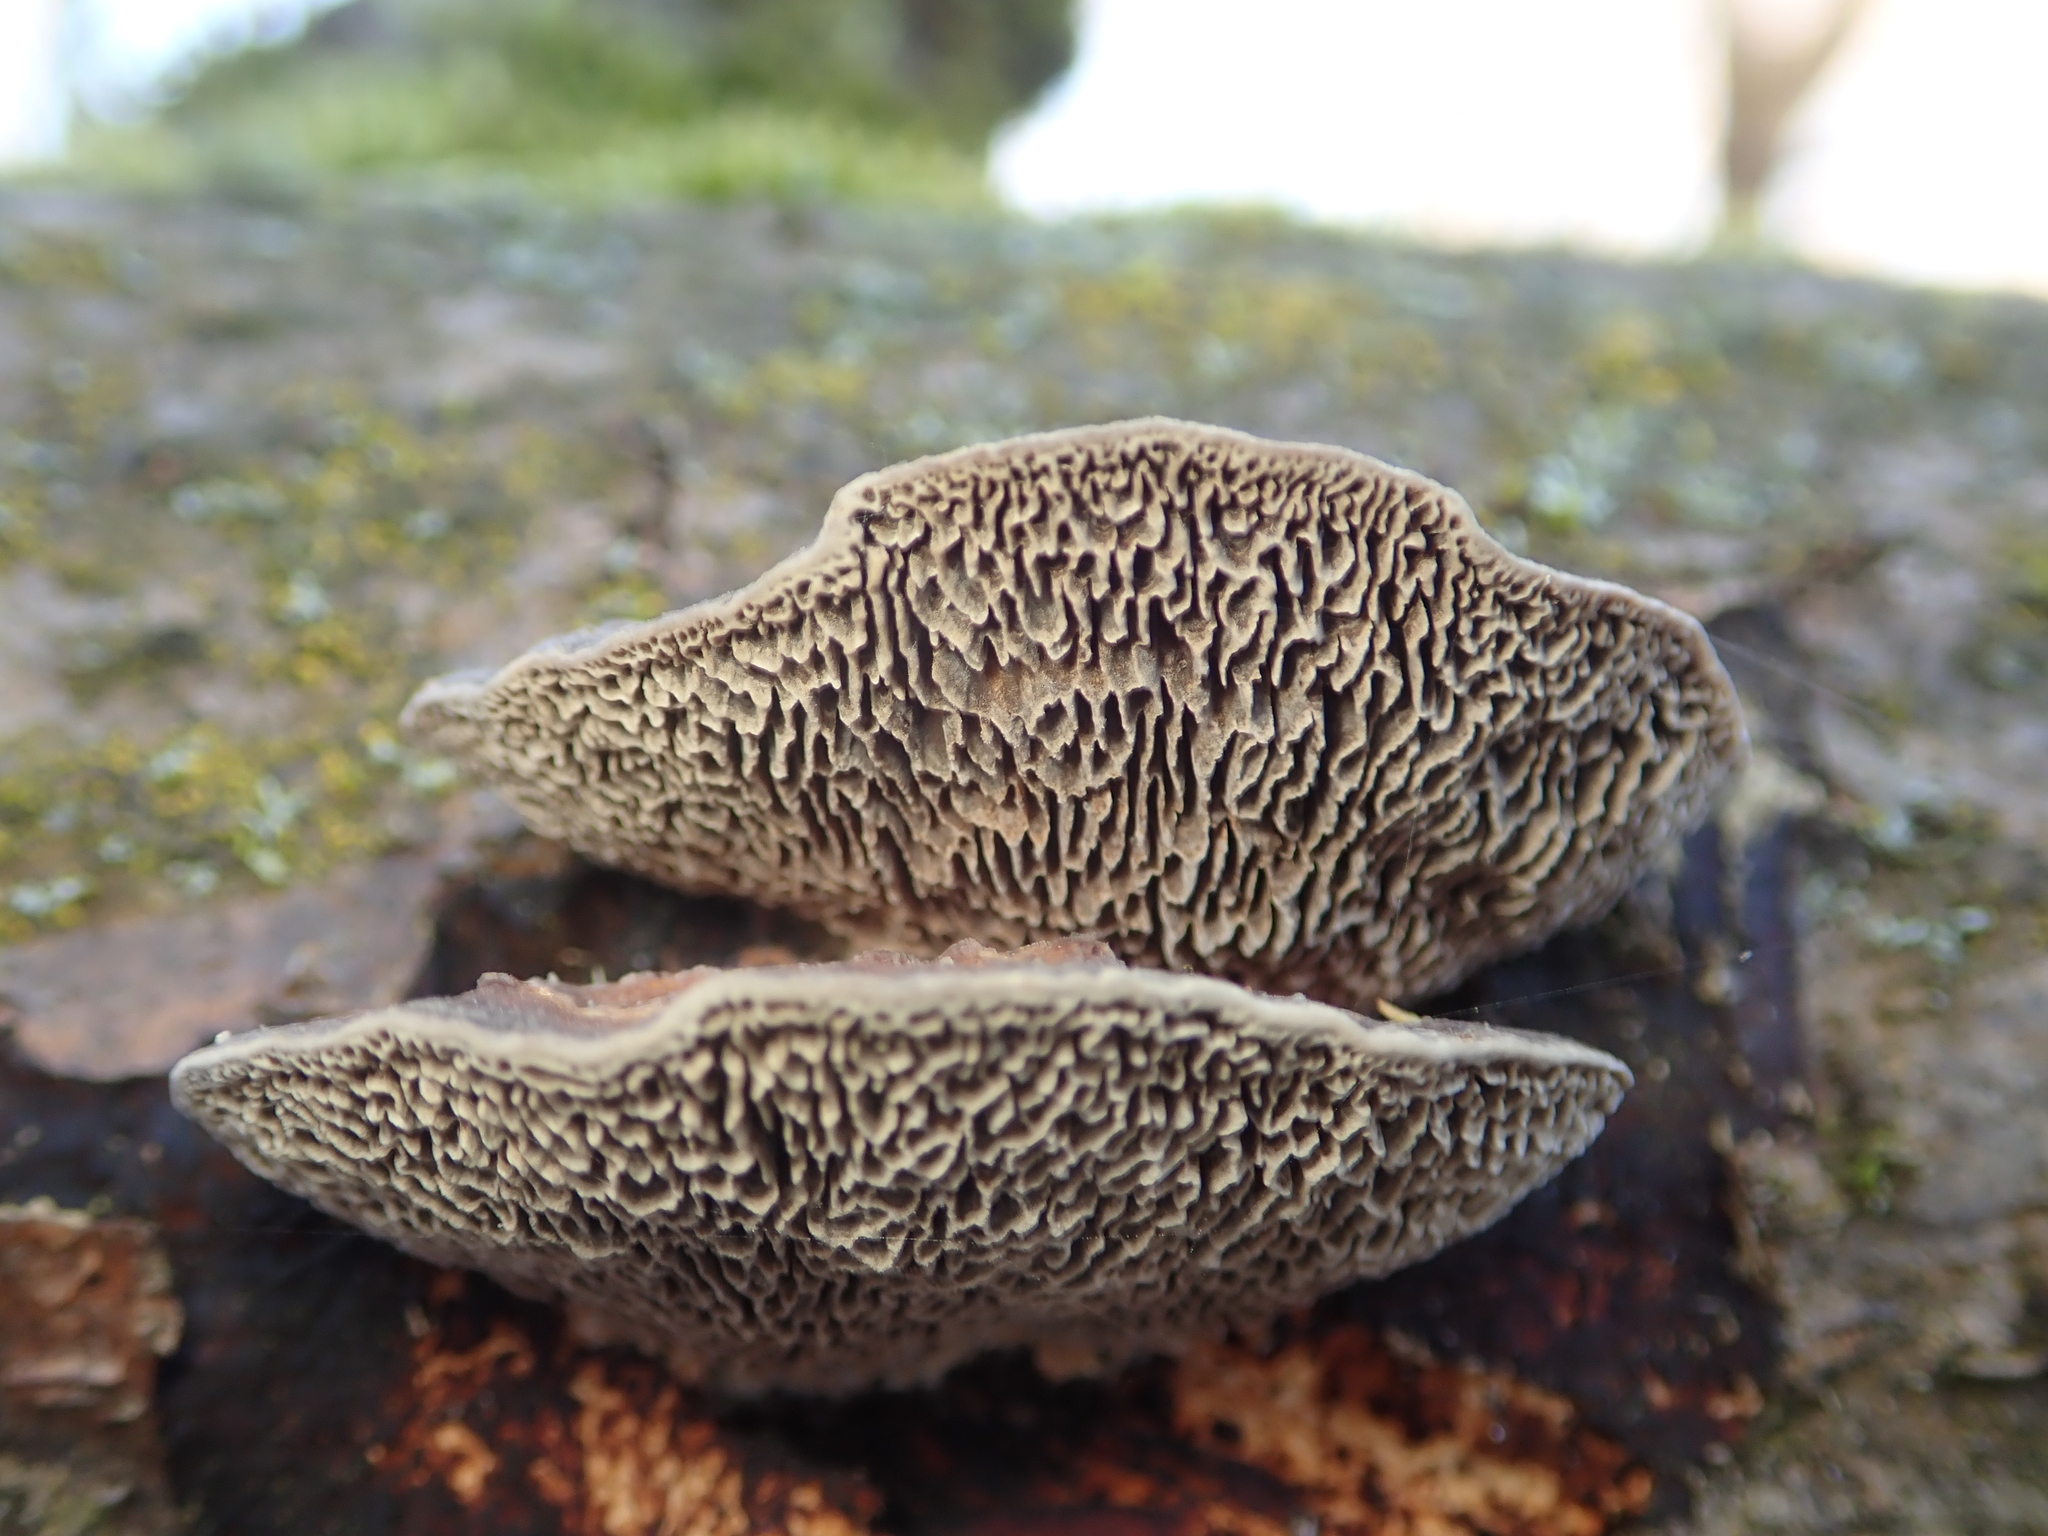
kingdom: Fungi
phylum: Basidiomycota
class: Agaricomycetes
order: Polyporales
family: Polyporaceae
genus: Daedaleopsis
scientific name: Daedaleopsis confragosa
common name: Blushing bracket
